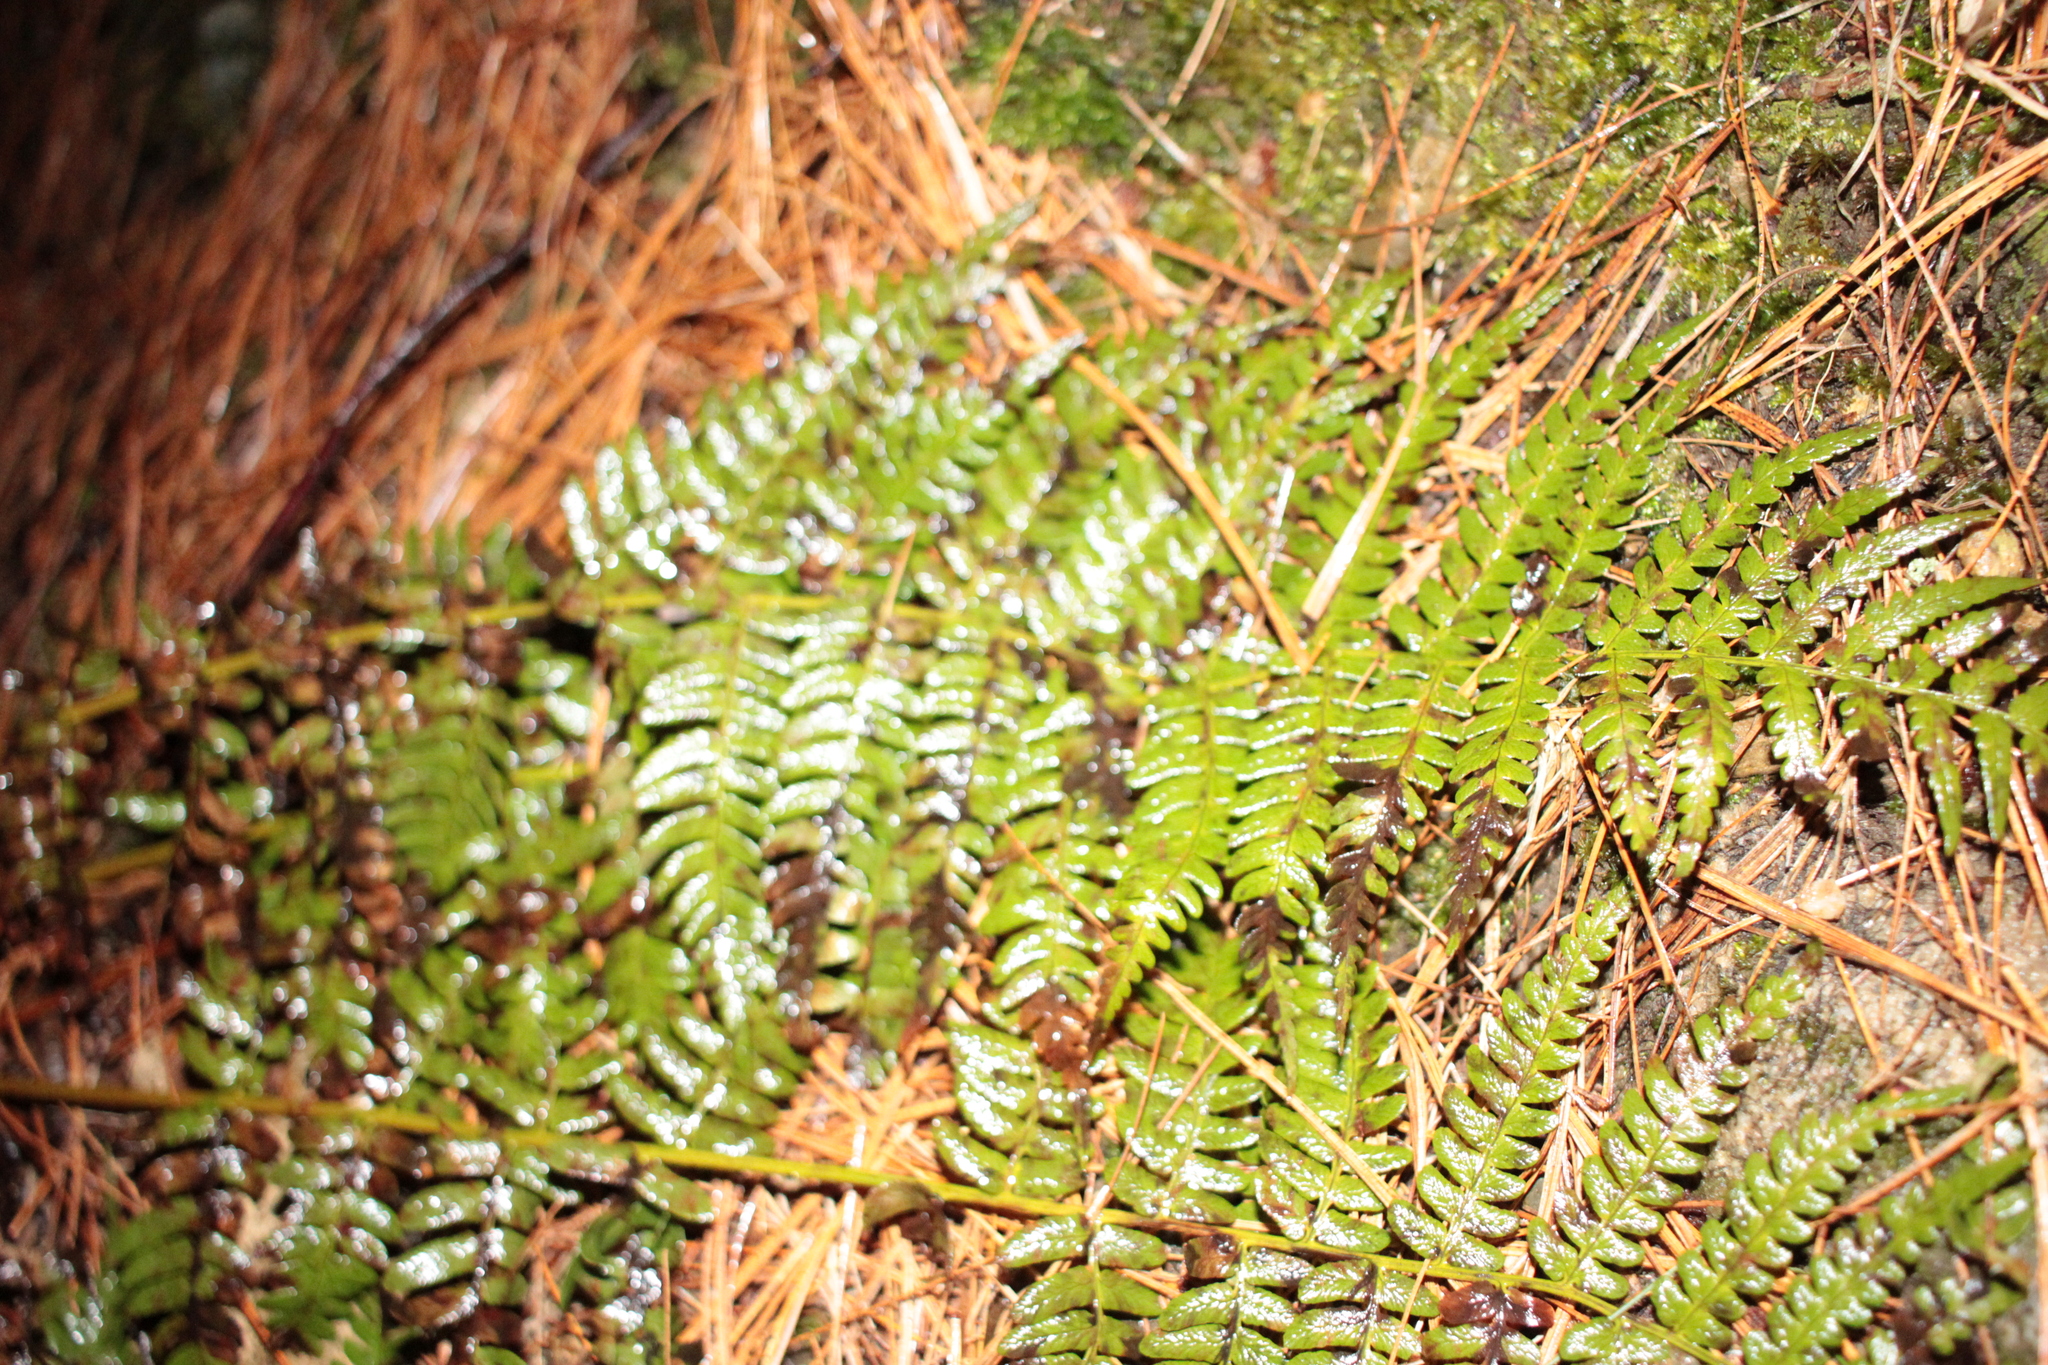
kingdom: Plantae
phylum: Tracheophyta
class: Polypodiopsida
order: Polypodiales
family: Dryopteridaceae
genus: Dryopteris
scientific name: Dryopteris marginalis
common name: Marginal wood fern
